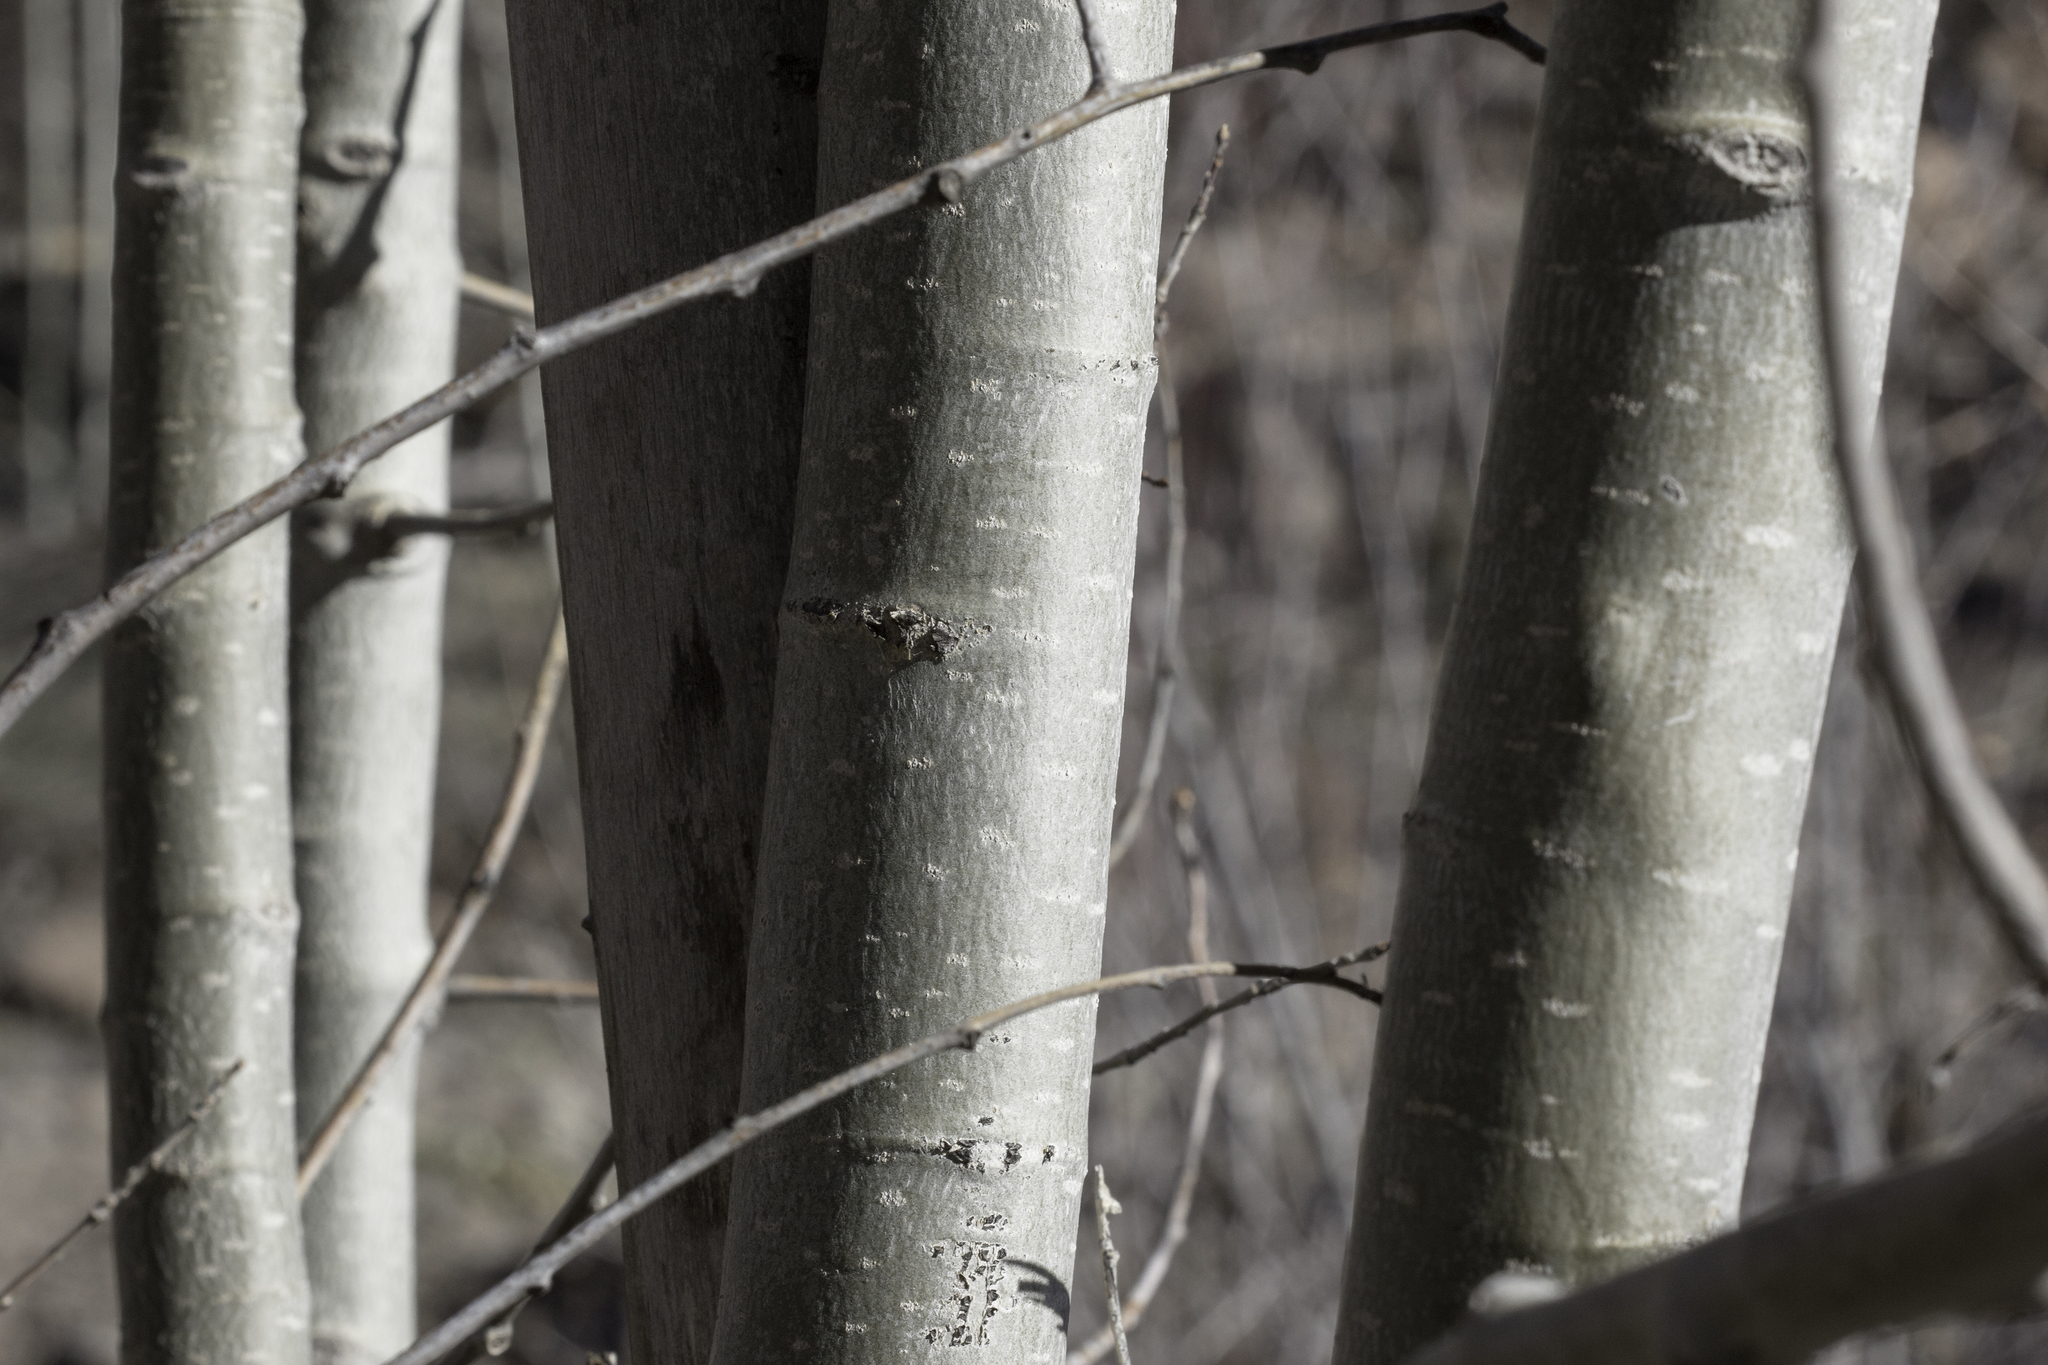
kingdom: Plantae
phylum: Tracheophyta
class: Magnoliopsida
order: Malpighiales
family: Salicaceae
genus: Populus
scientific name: Populus tremuloides
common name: Quaking aspen
